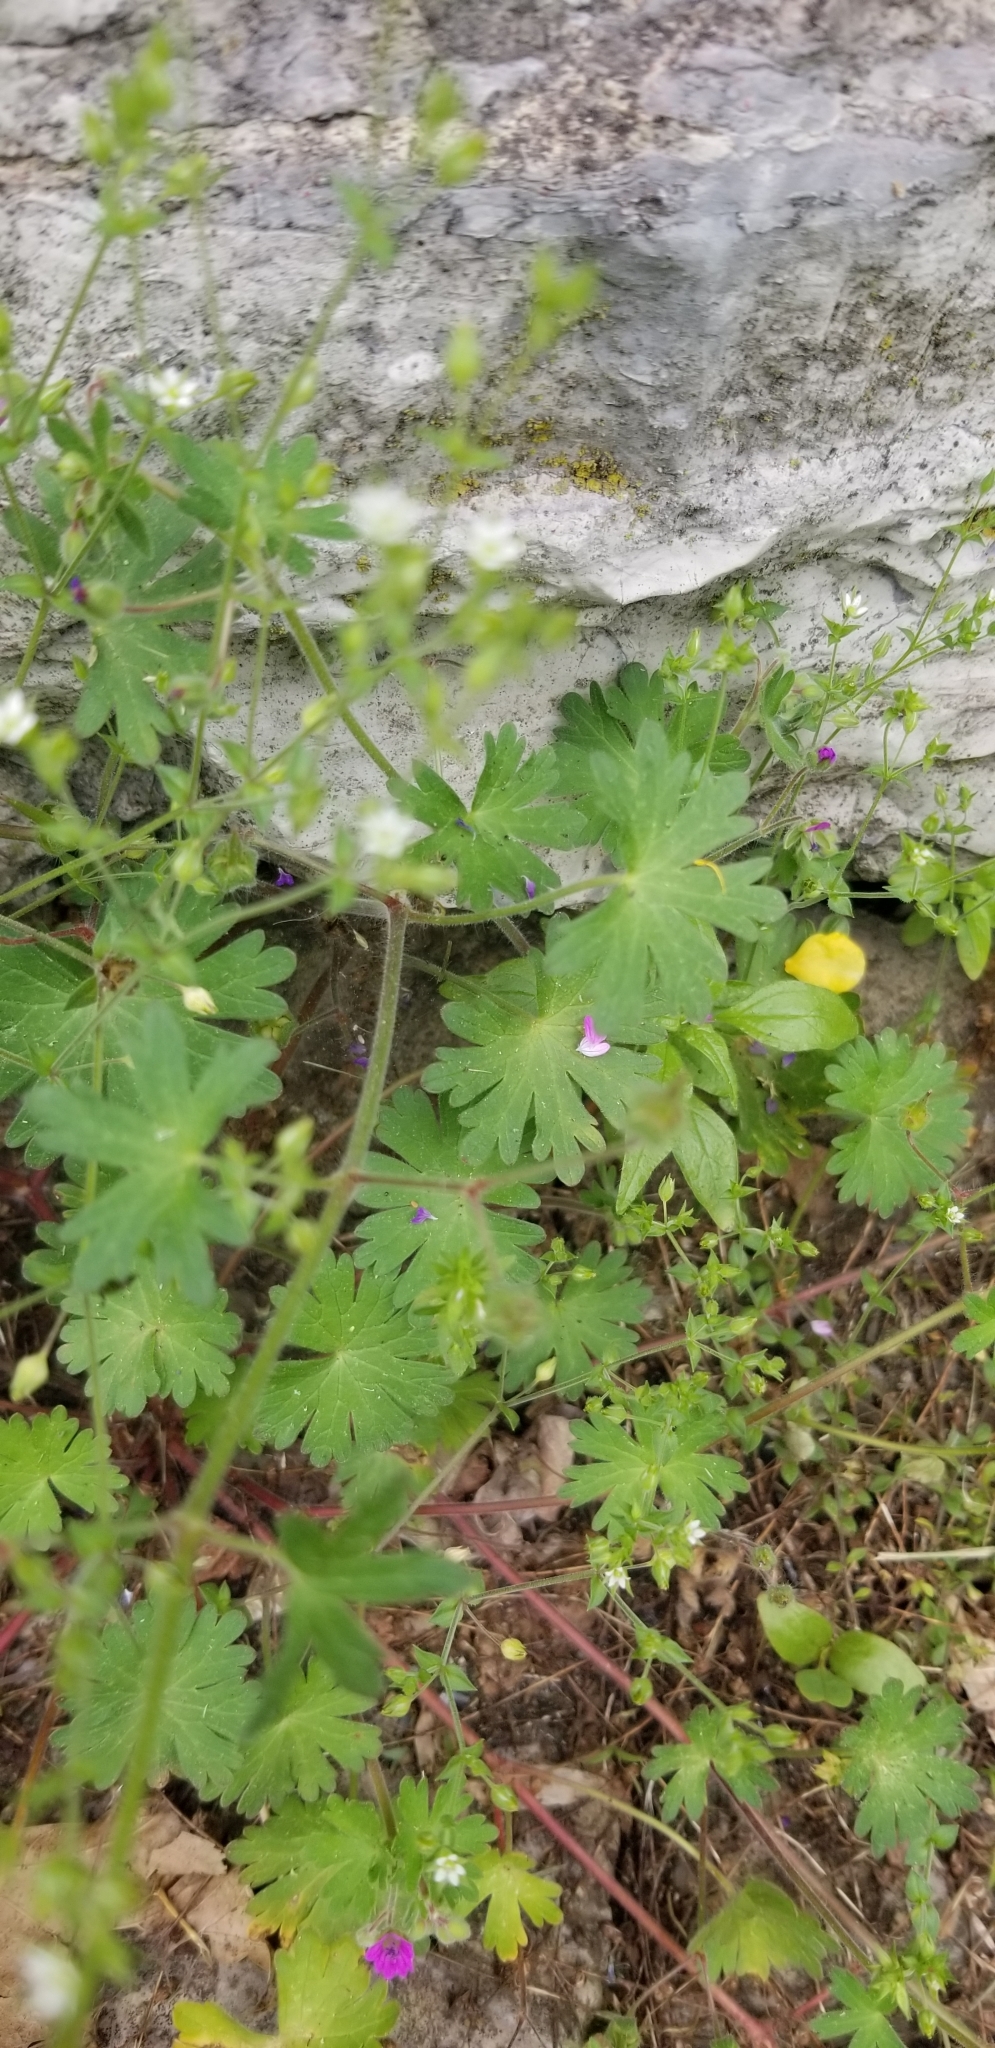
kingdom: Plantae
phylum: Tracheophyta
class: Magnoliopsida
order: Geraniales
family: Geraniaceae
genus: Geranium
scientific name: Geranium molle
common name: Dove's-foot crane's-bill
